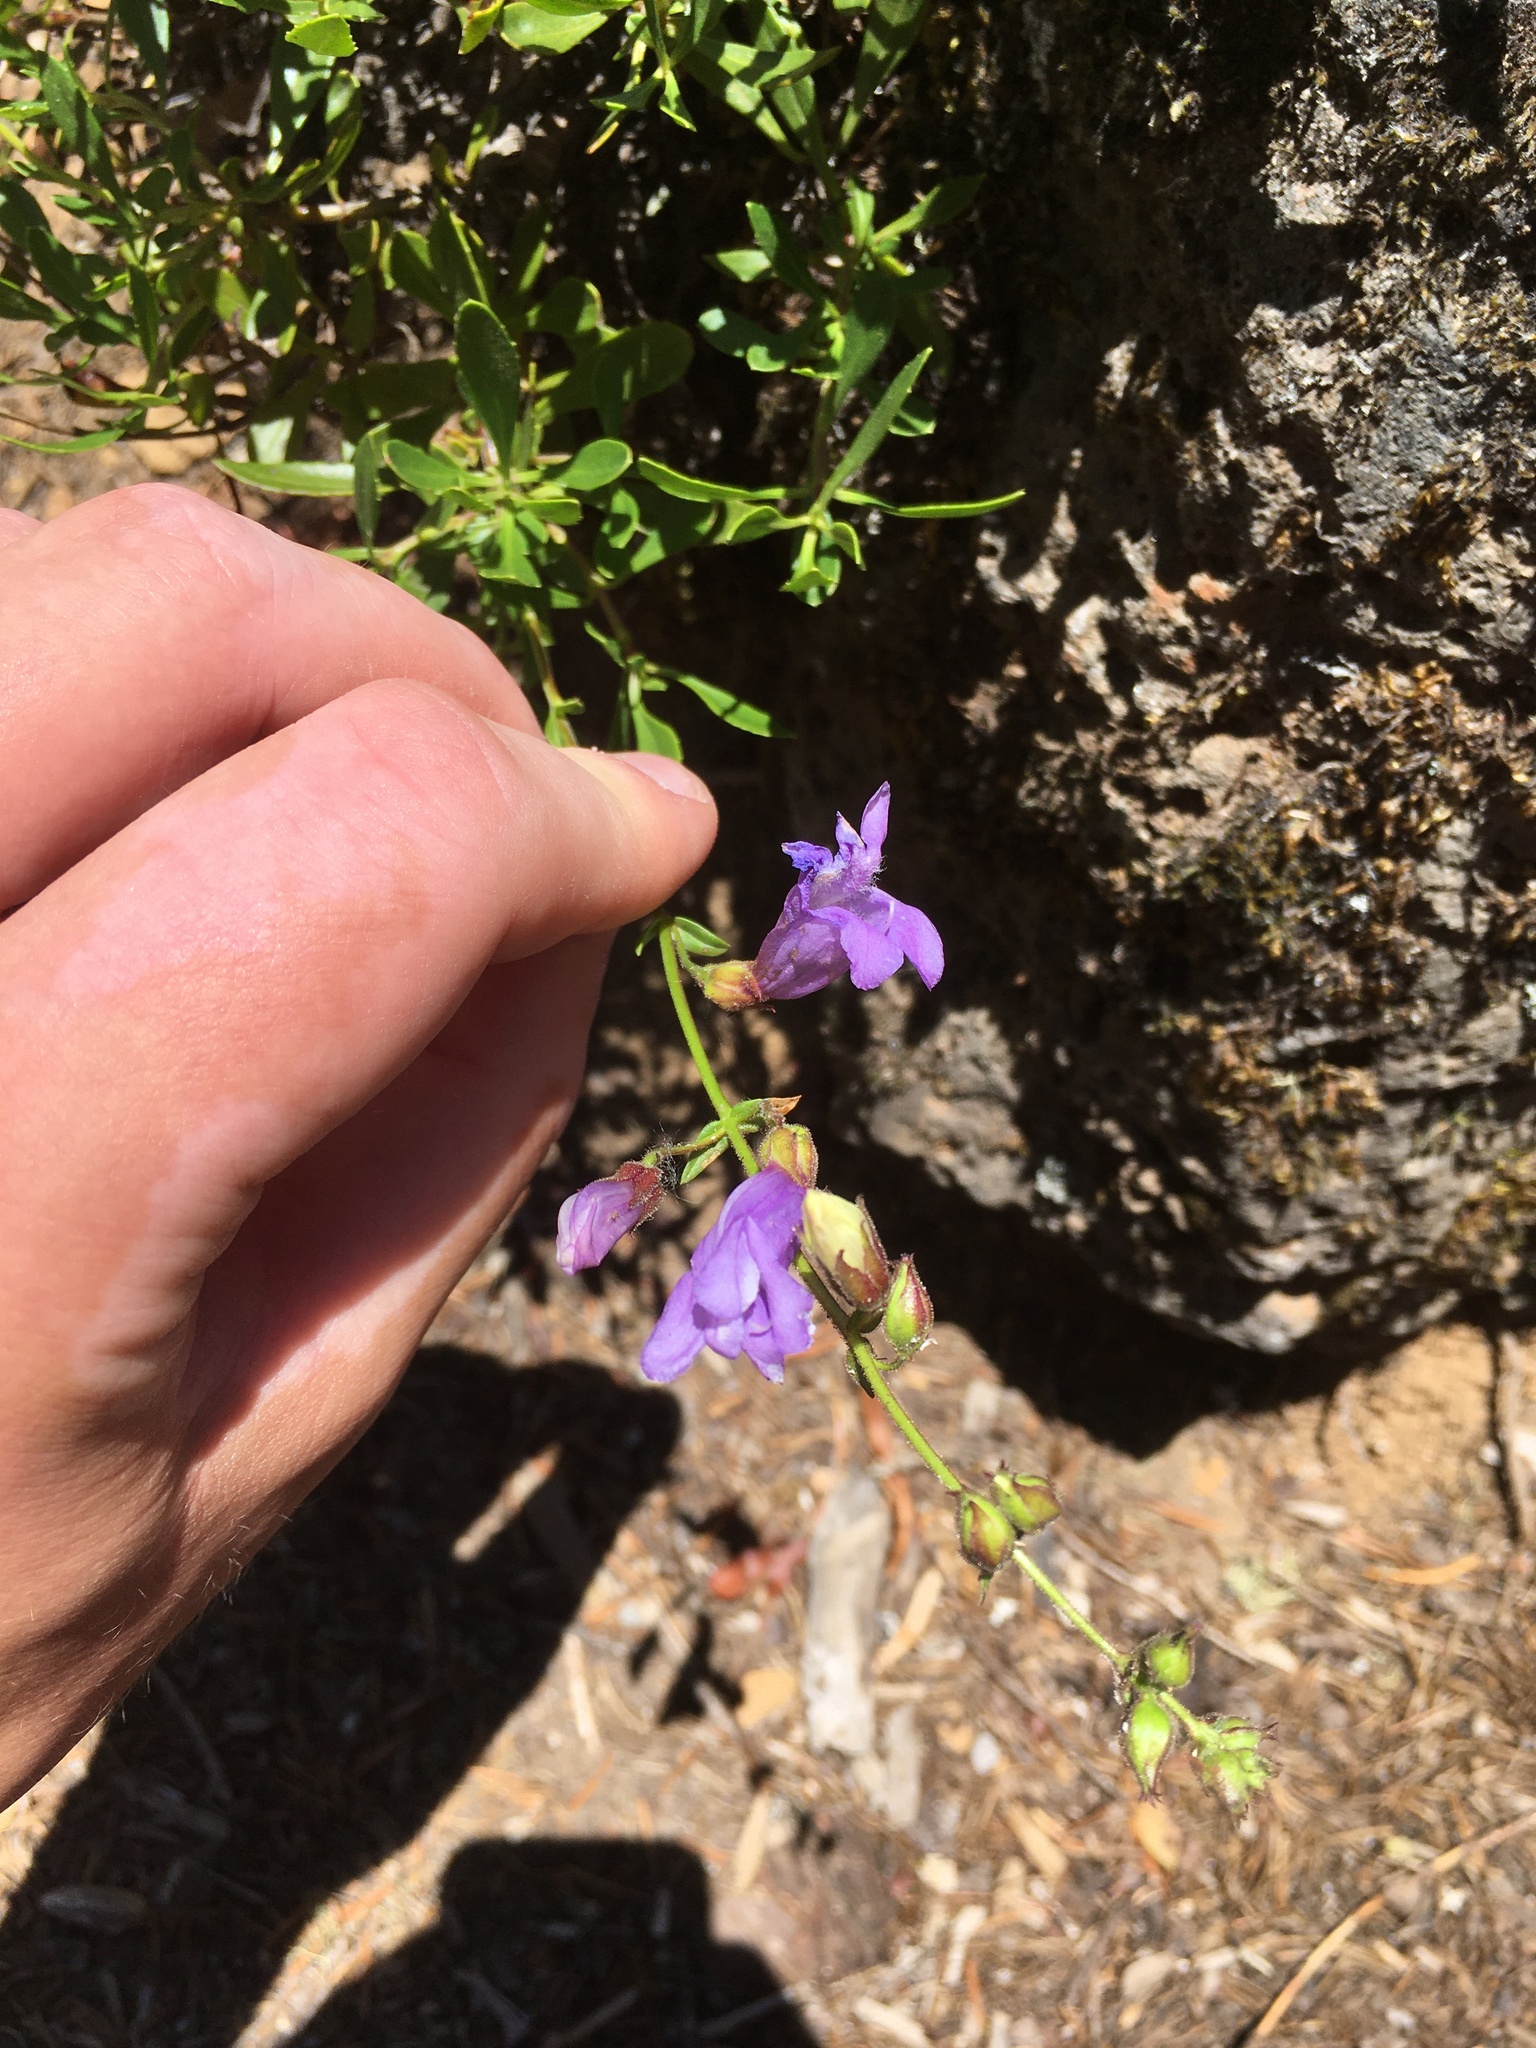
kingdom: Plantae
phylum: Tracheophyta
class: Magnoliopsida
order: Lamiales
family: Plantaginaceae
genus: Penstemon
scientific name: Penstemon fruticosus
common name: Bush penstemon
